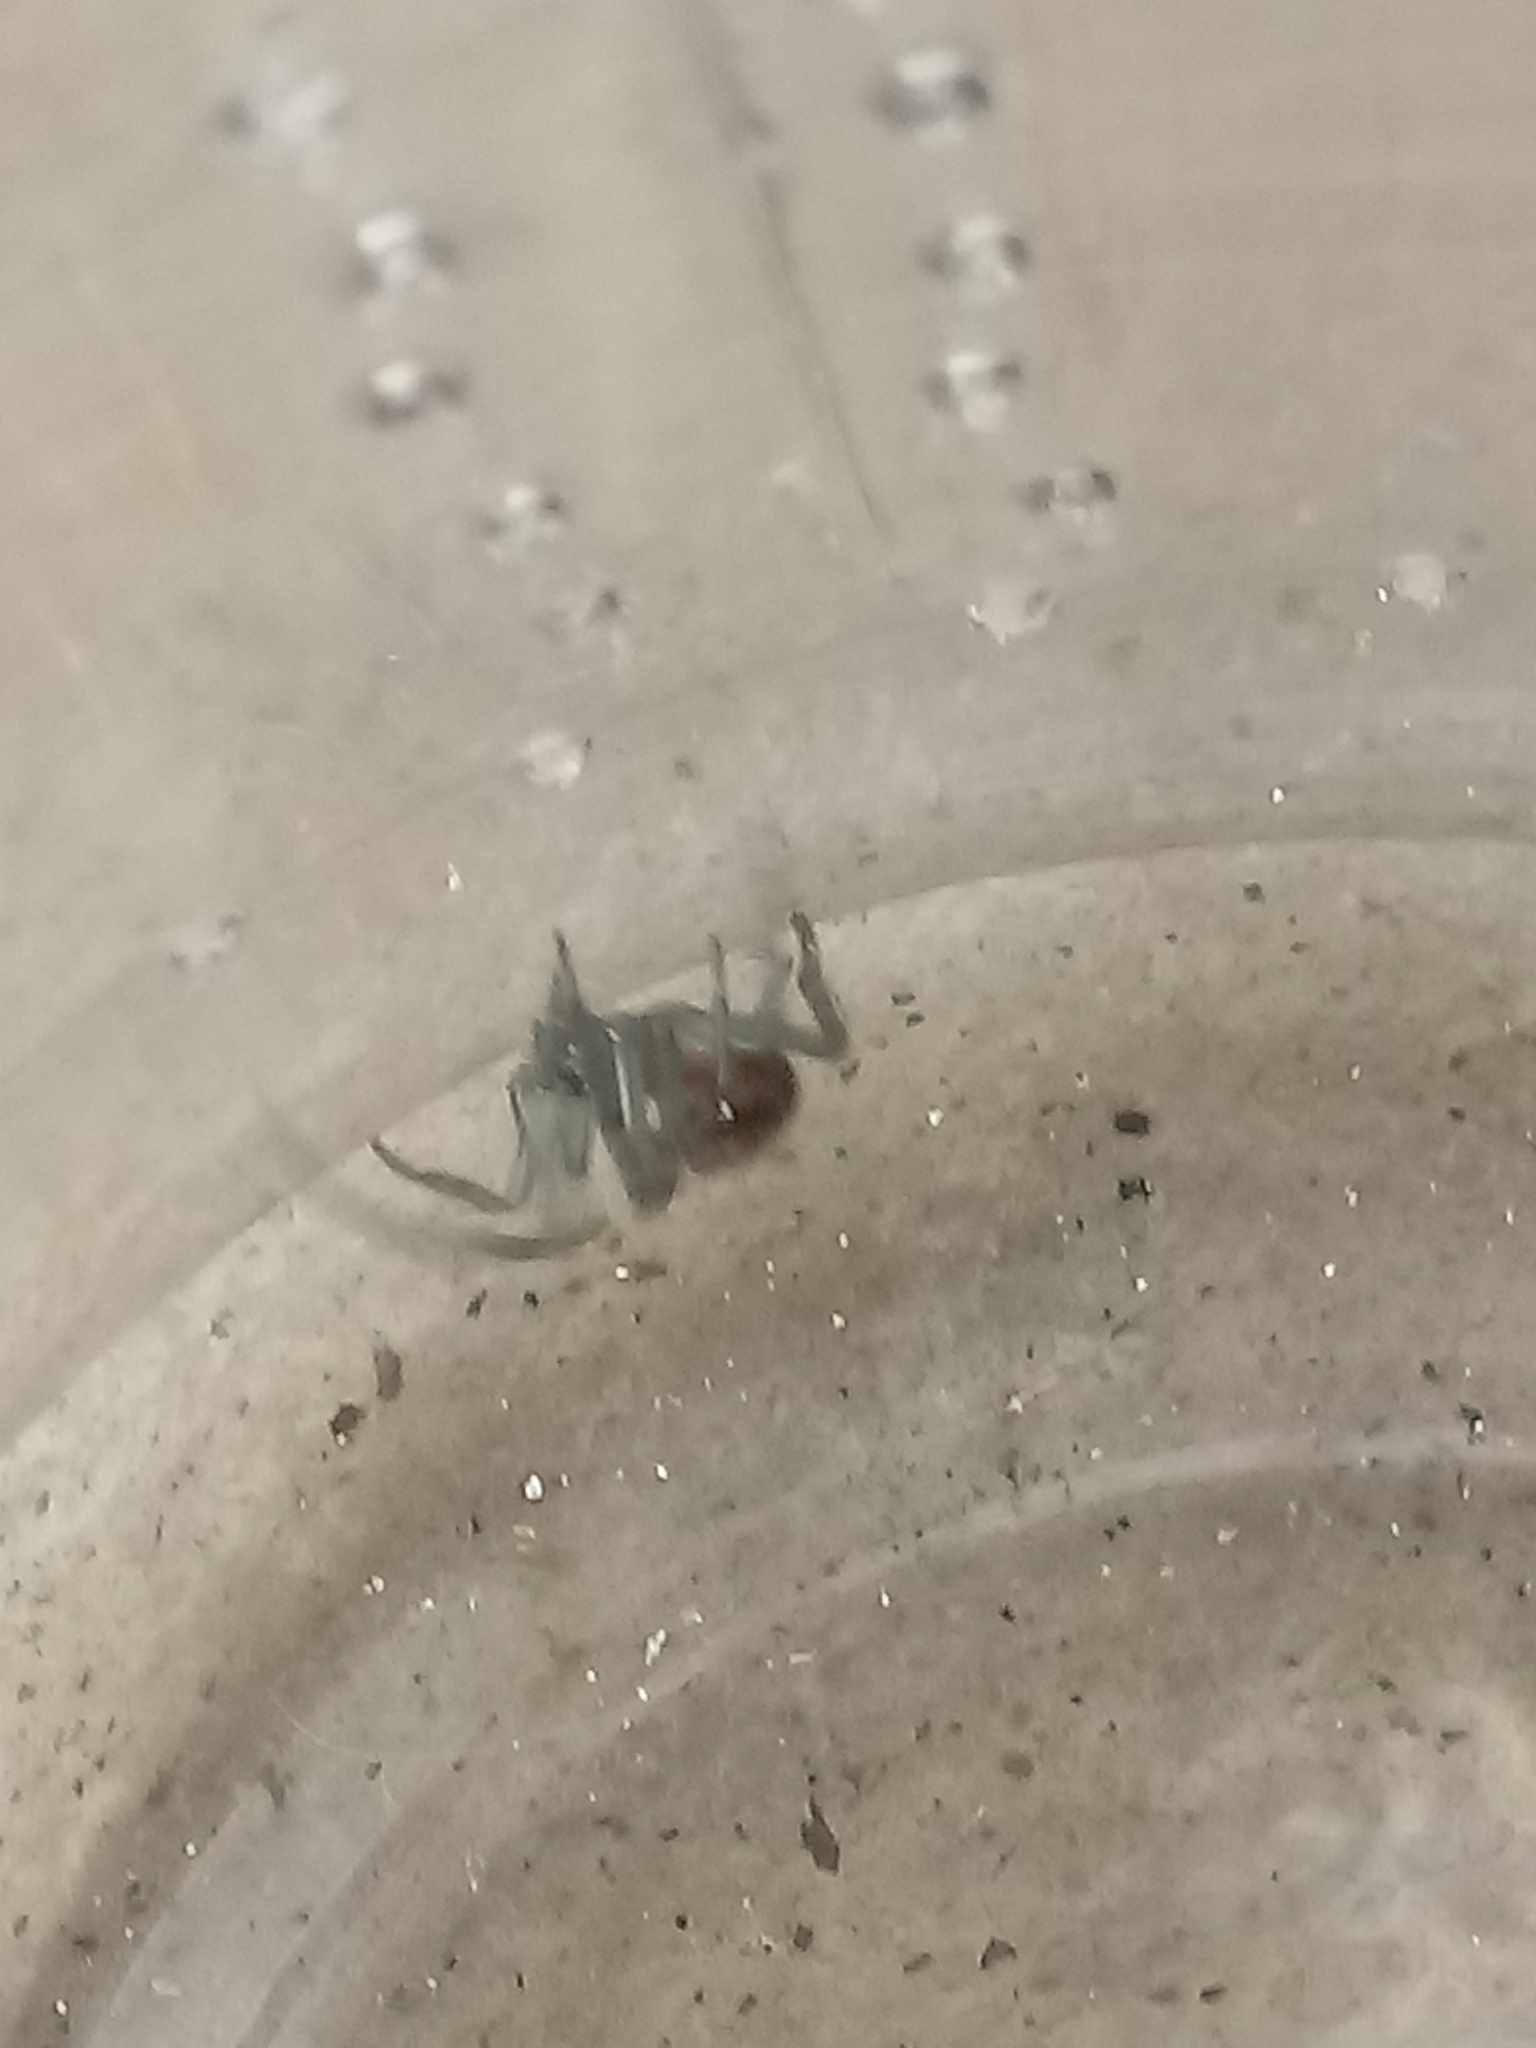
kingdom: Animalia
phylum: Arthropoda
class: Arachnida
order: Araneae
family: Theridiidae
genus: Steatoda
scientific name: Steatoda nobilis
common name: Cobweb weaver
